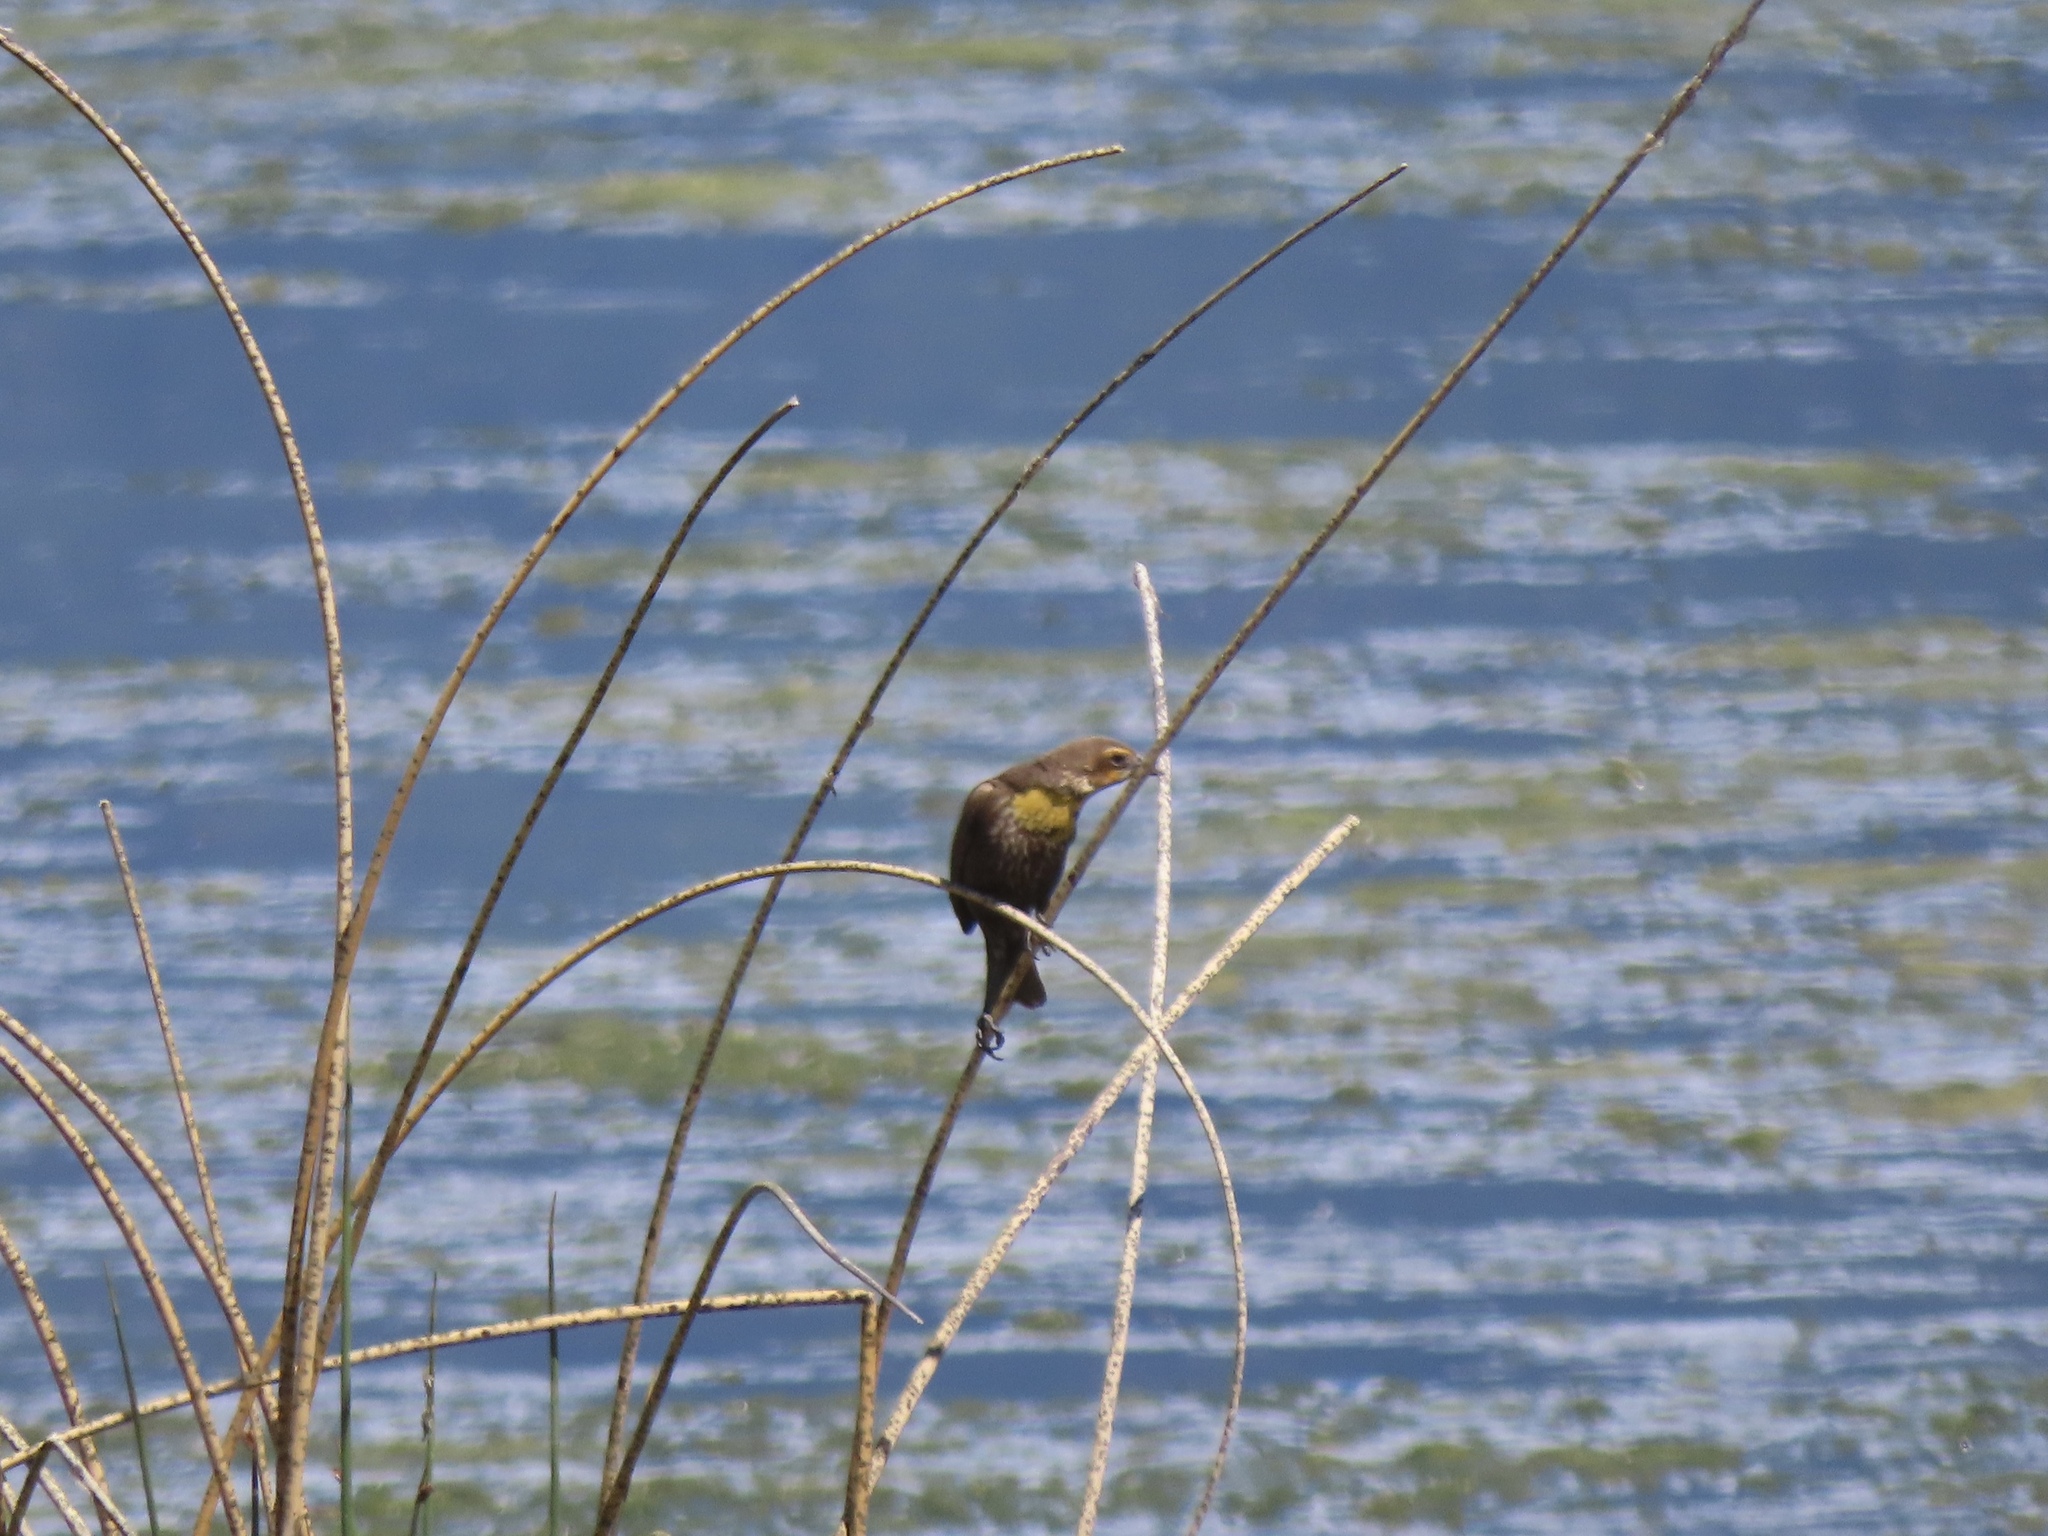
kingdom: Animalia
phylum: Chordata
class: Aves
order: Passeriformes
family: Icteridae
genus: Xanthocephalus
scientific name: Xanthocephalus xanthocephalus
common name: Yellow-headed blackbird
